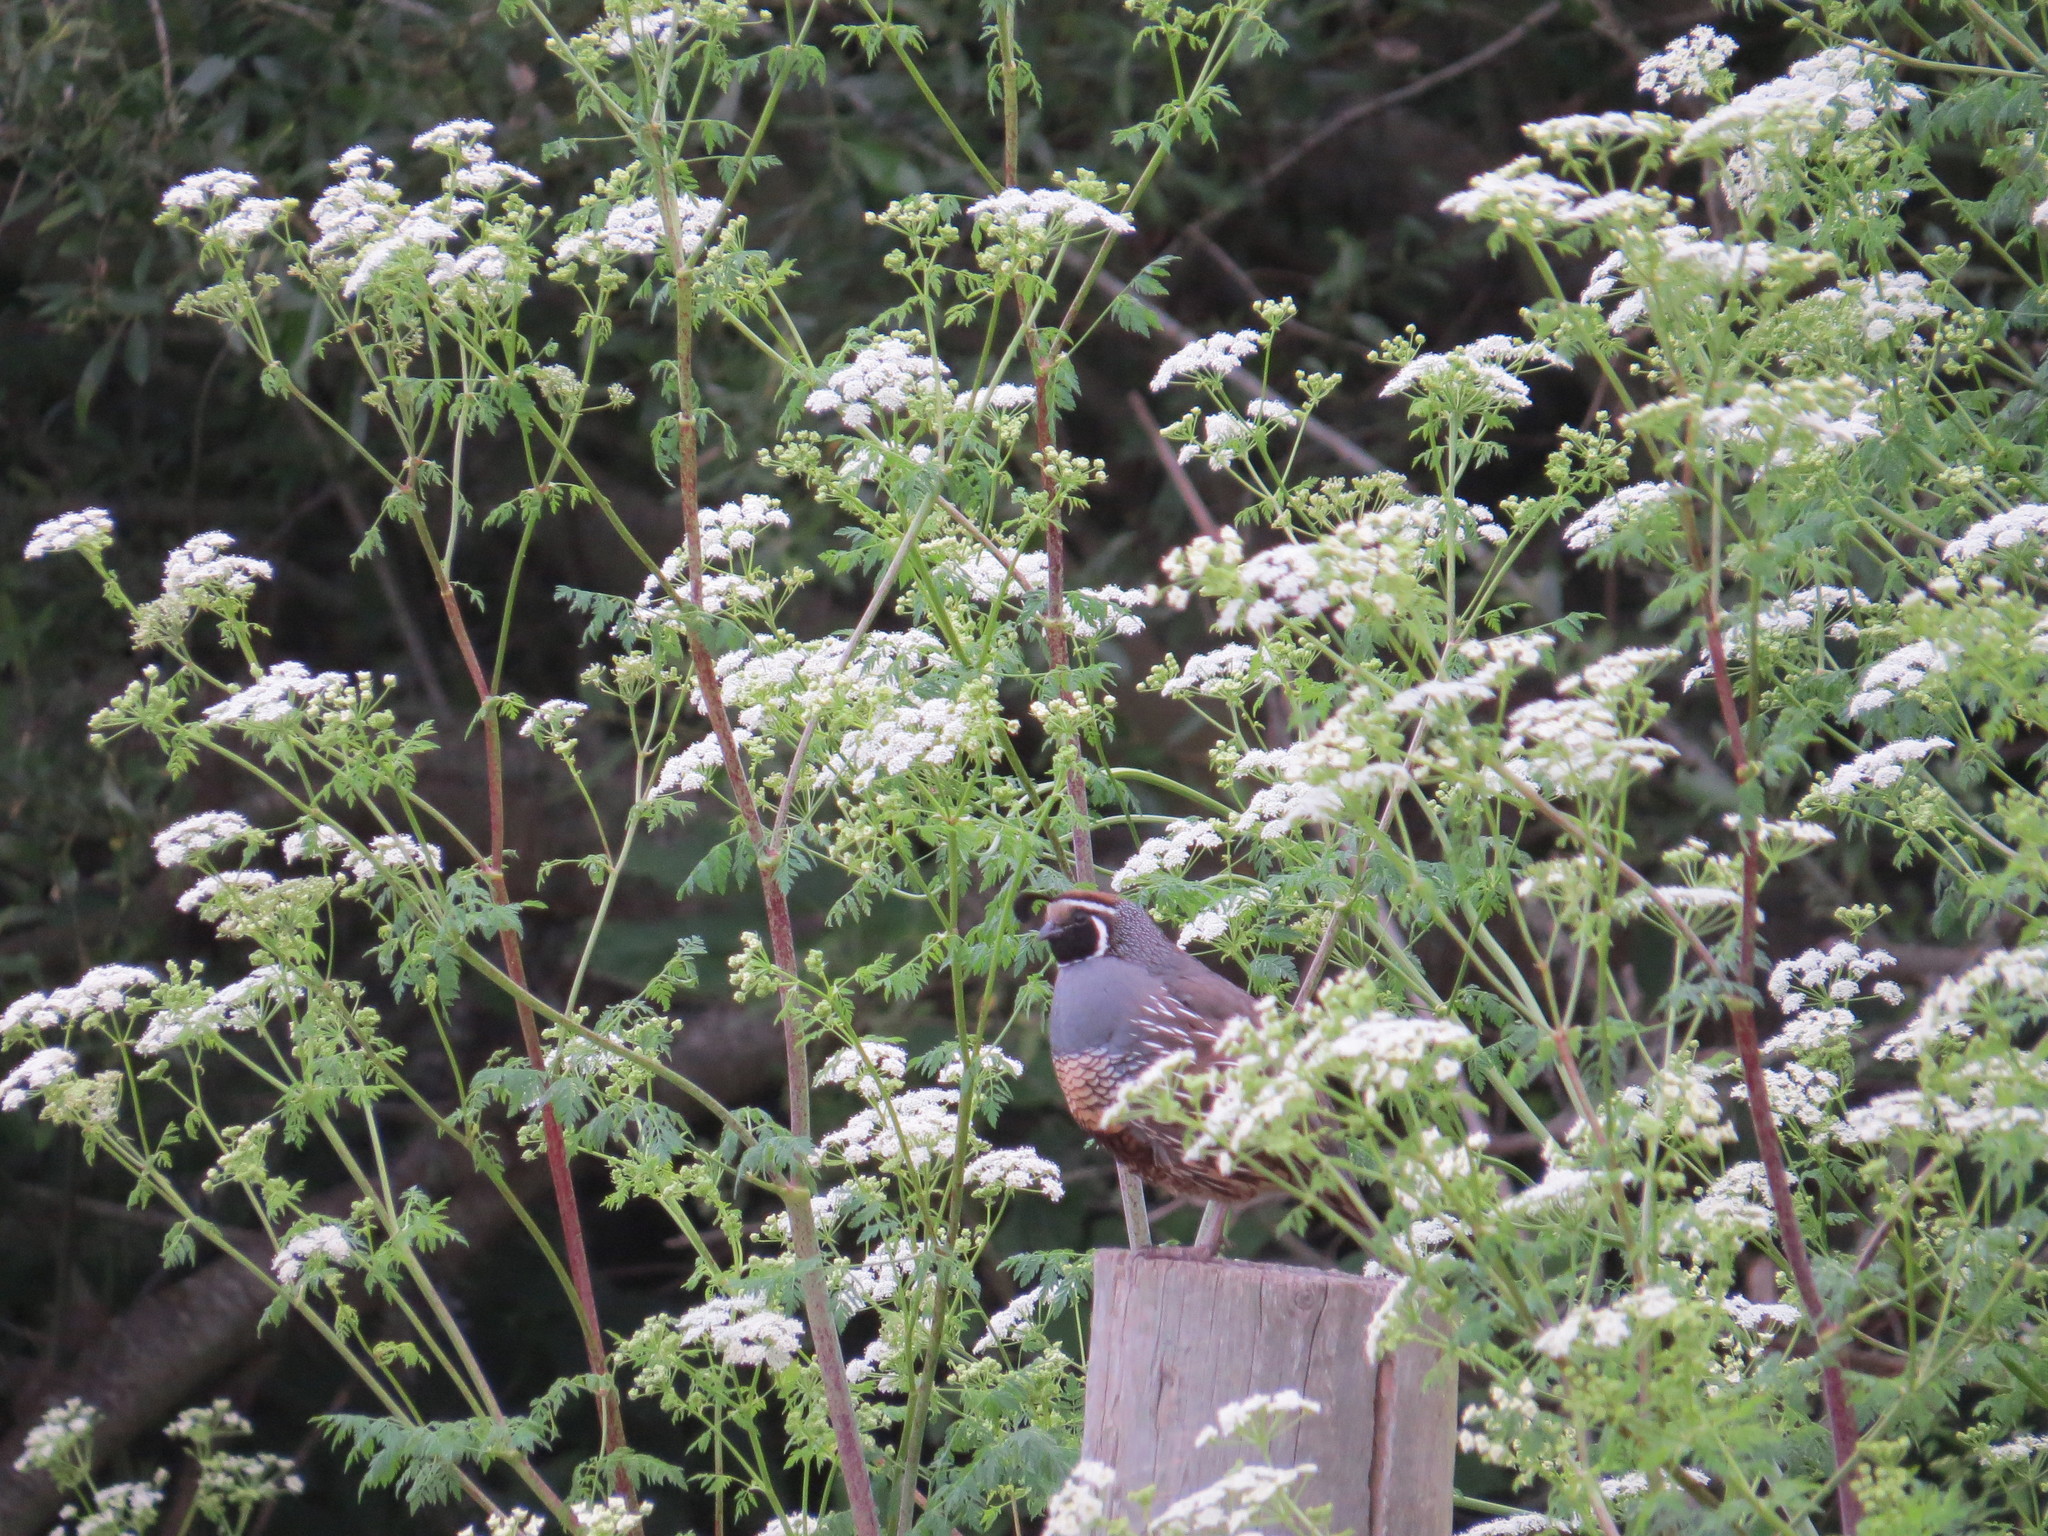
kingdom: Animalia
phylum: Chordata
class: Aves
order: Galliformes
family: Odontophoridae
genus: Callipepla
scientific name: Callipepla californica
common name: California quail
